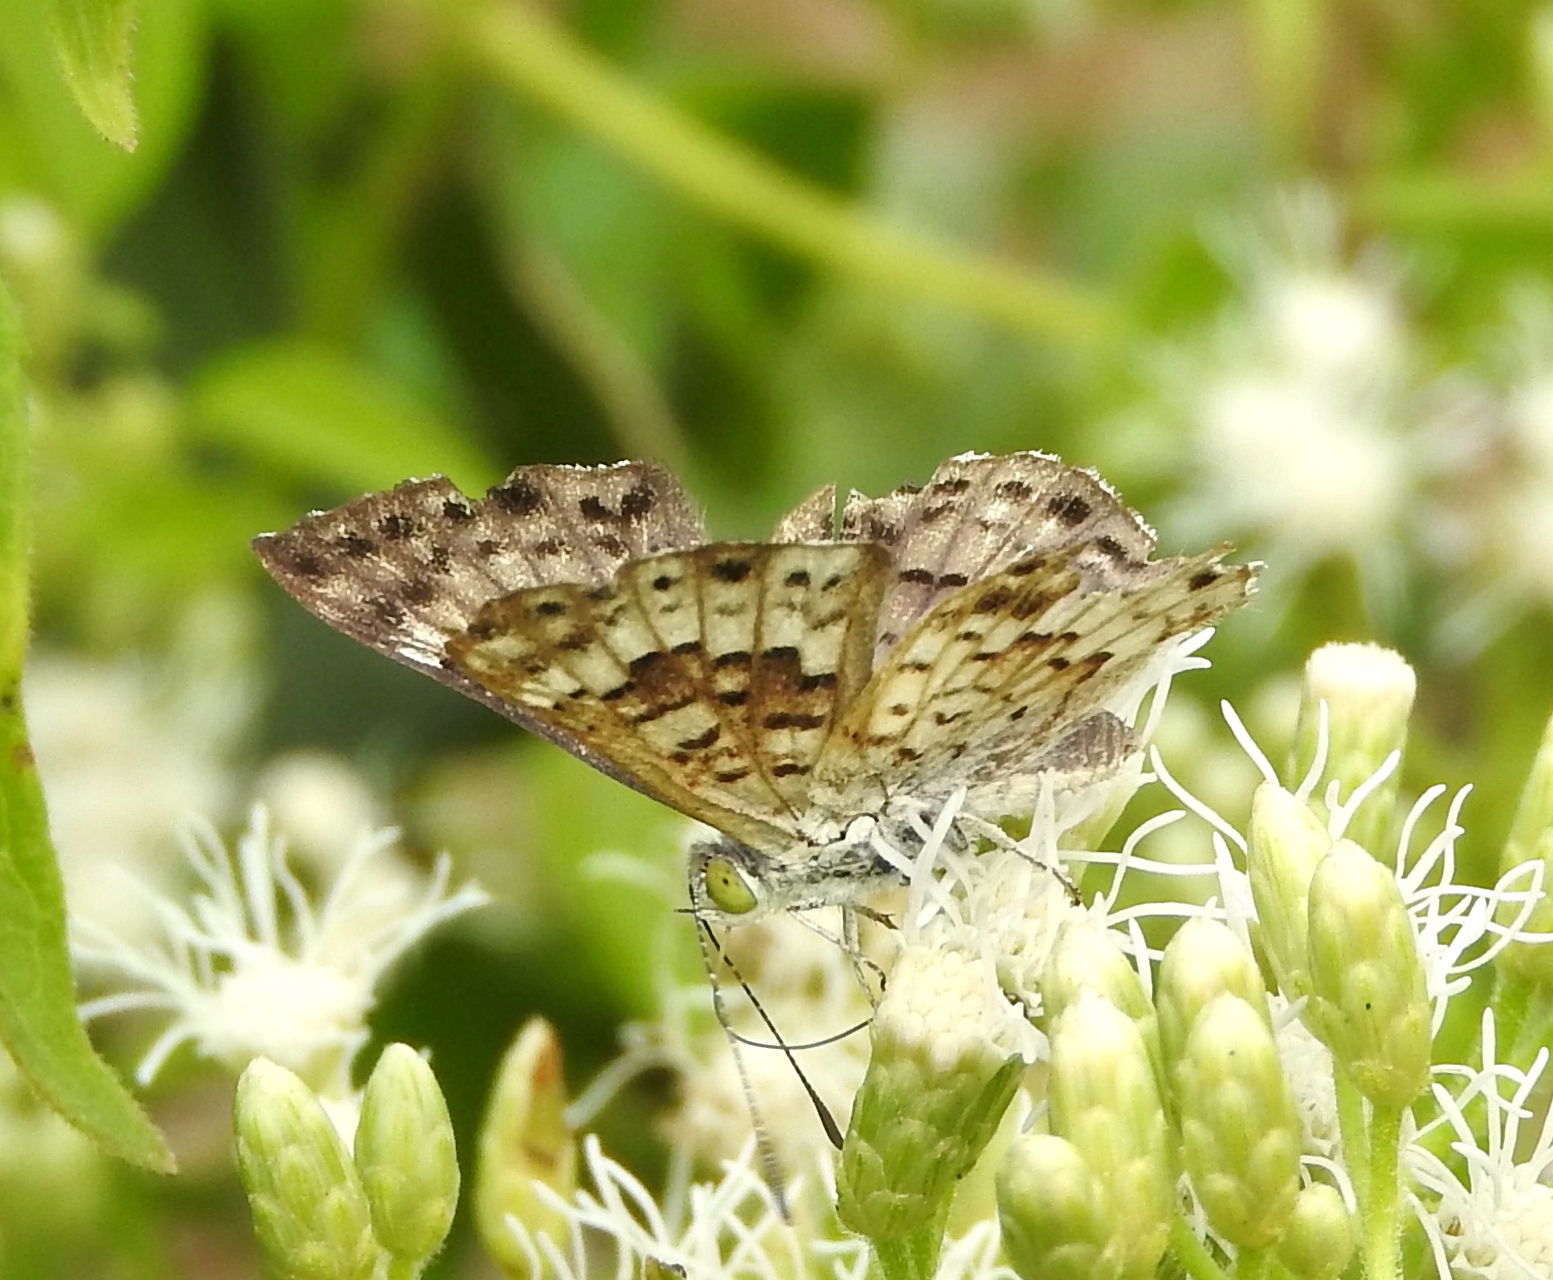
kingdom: Animalia
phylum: Arthropoda
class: Insecta
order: Diptera
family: Acroceridae
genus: Lasia
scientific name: Lasia
